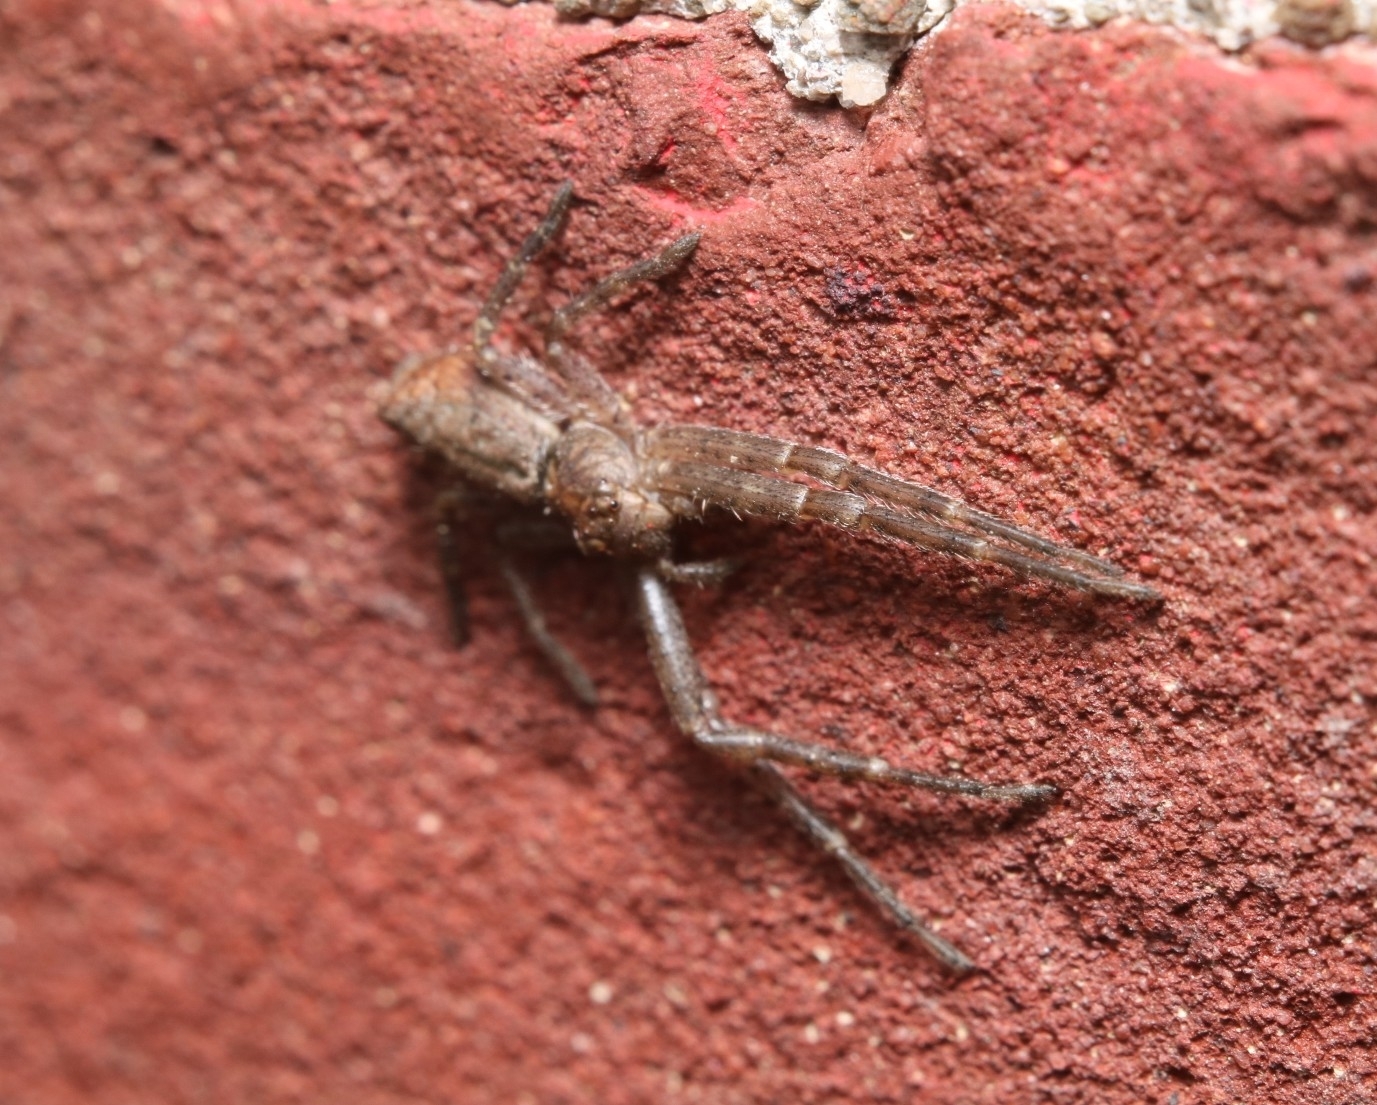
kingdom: Animalia
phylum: Arthropoda
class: Arachnida
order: Araneae
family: Thomisidae
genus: Tmarus
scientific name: Tmarus angulatus
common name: Tuberculated crab spider
